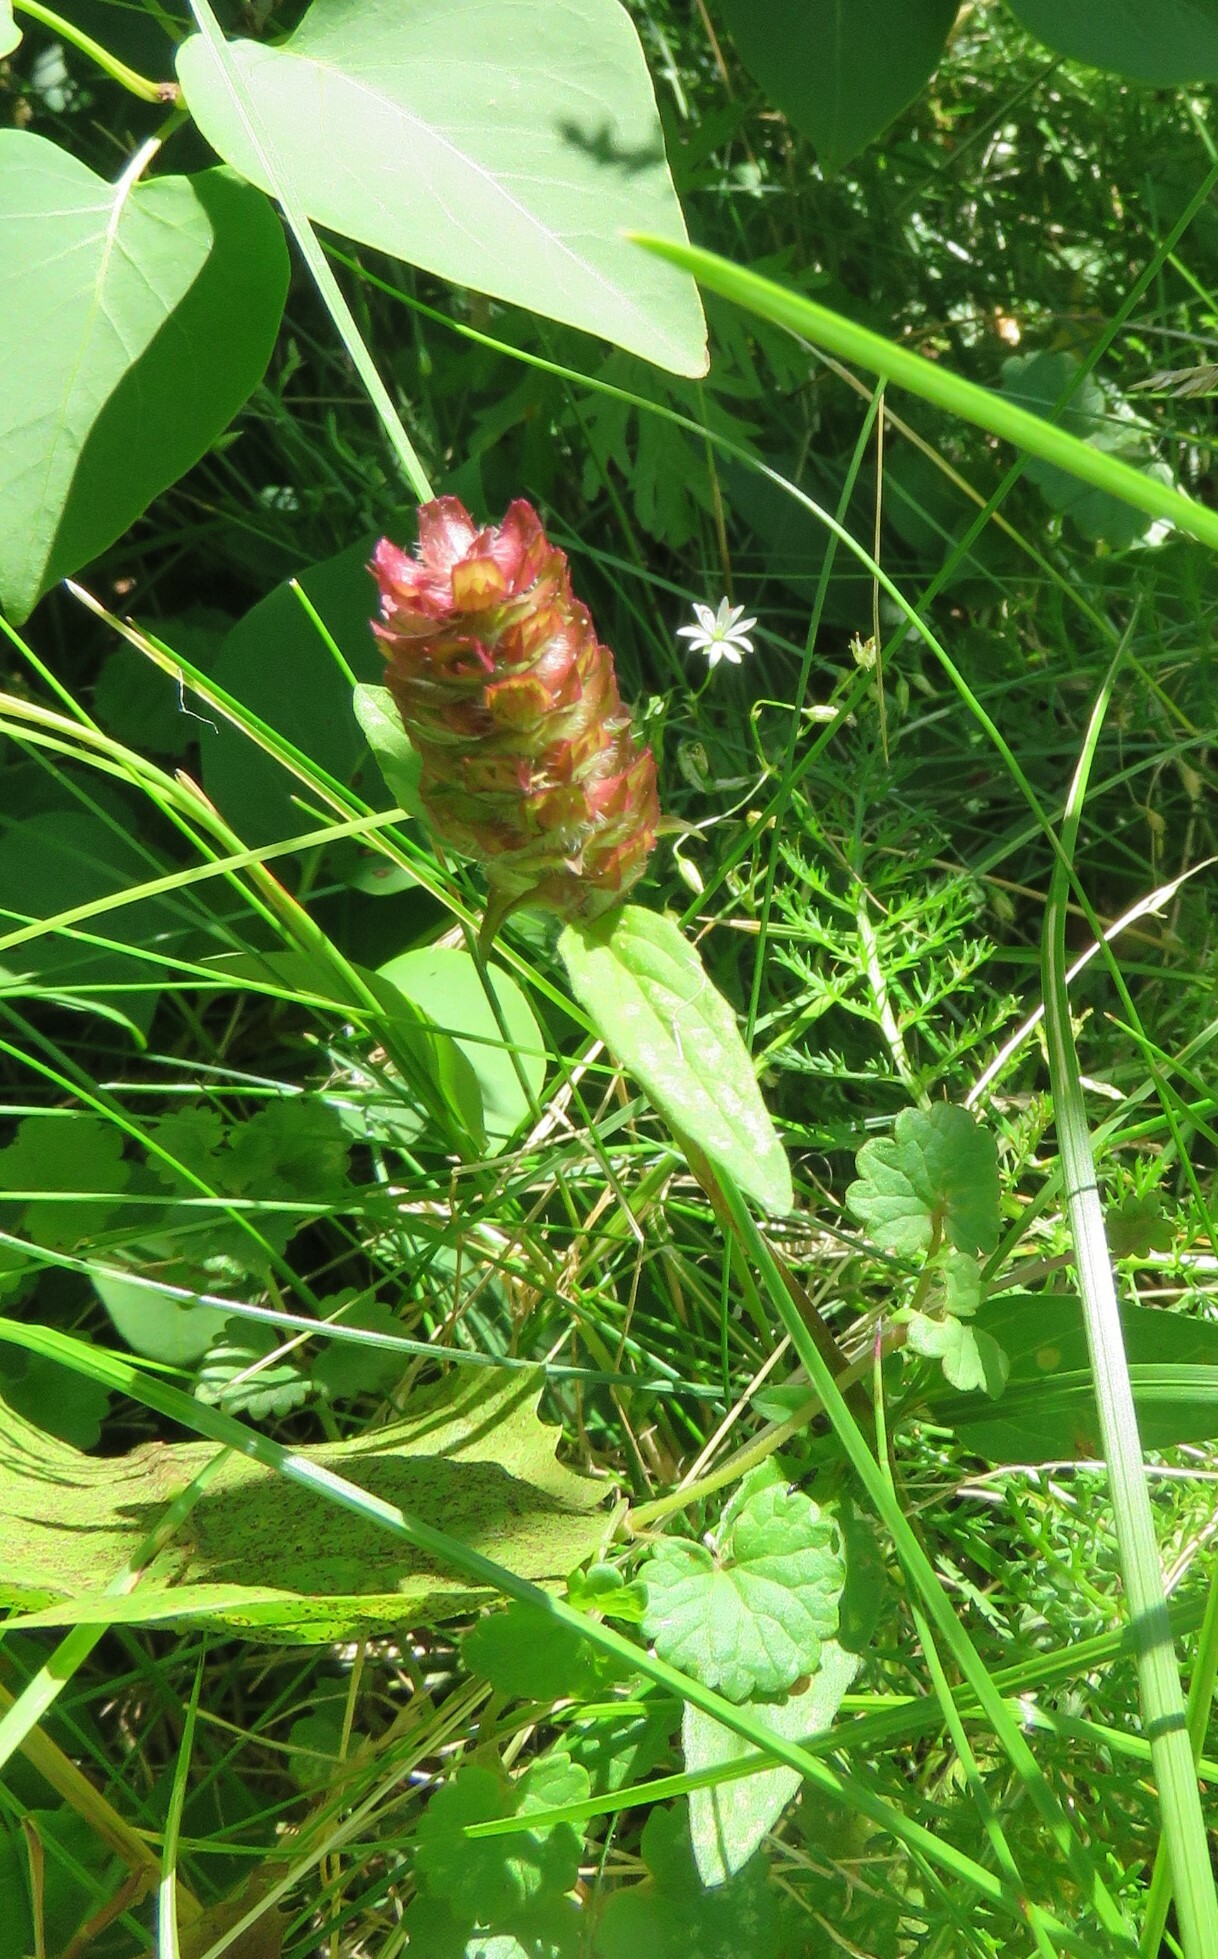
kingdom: Plantae
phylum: Tracheophyta
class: Magnoliopsida
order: Lamiales
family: Lamiaceae
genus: Prunella
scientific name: Prunella vulgaris
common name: Heal-all
